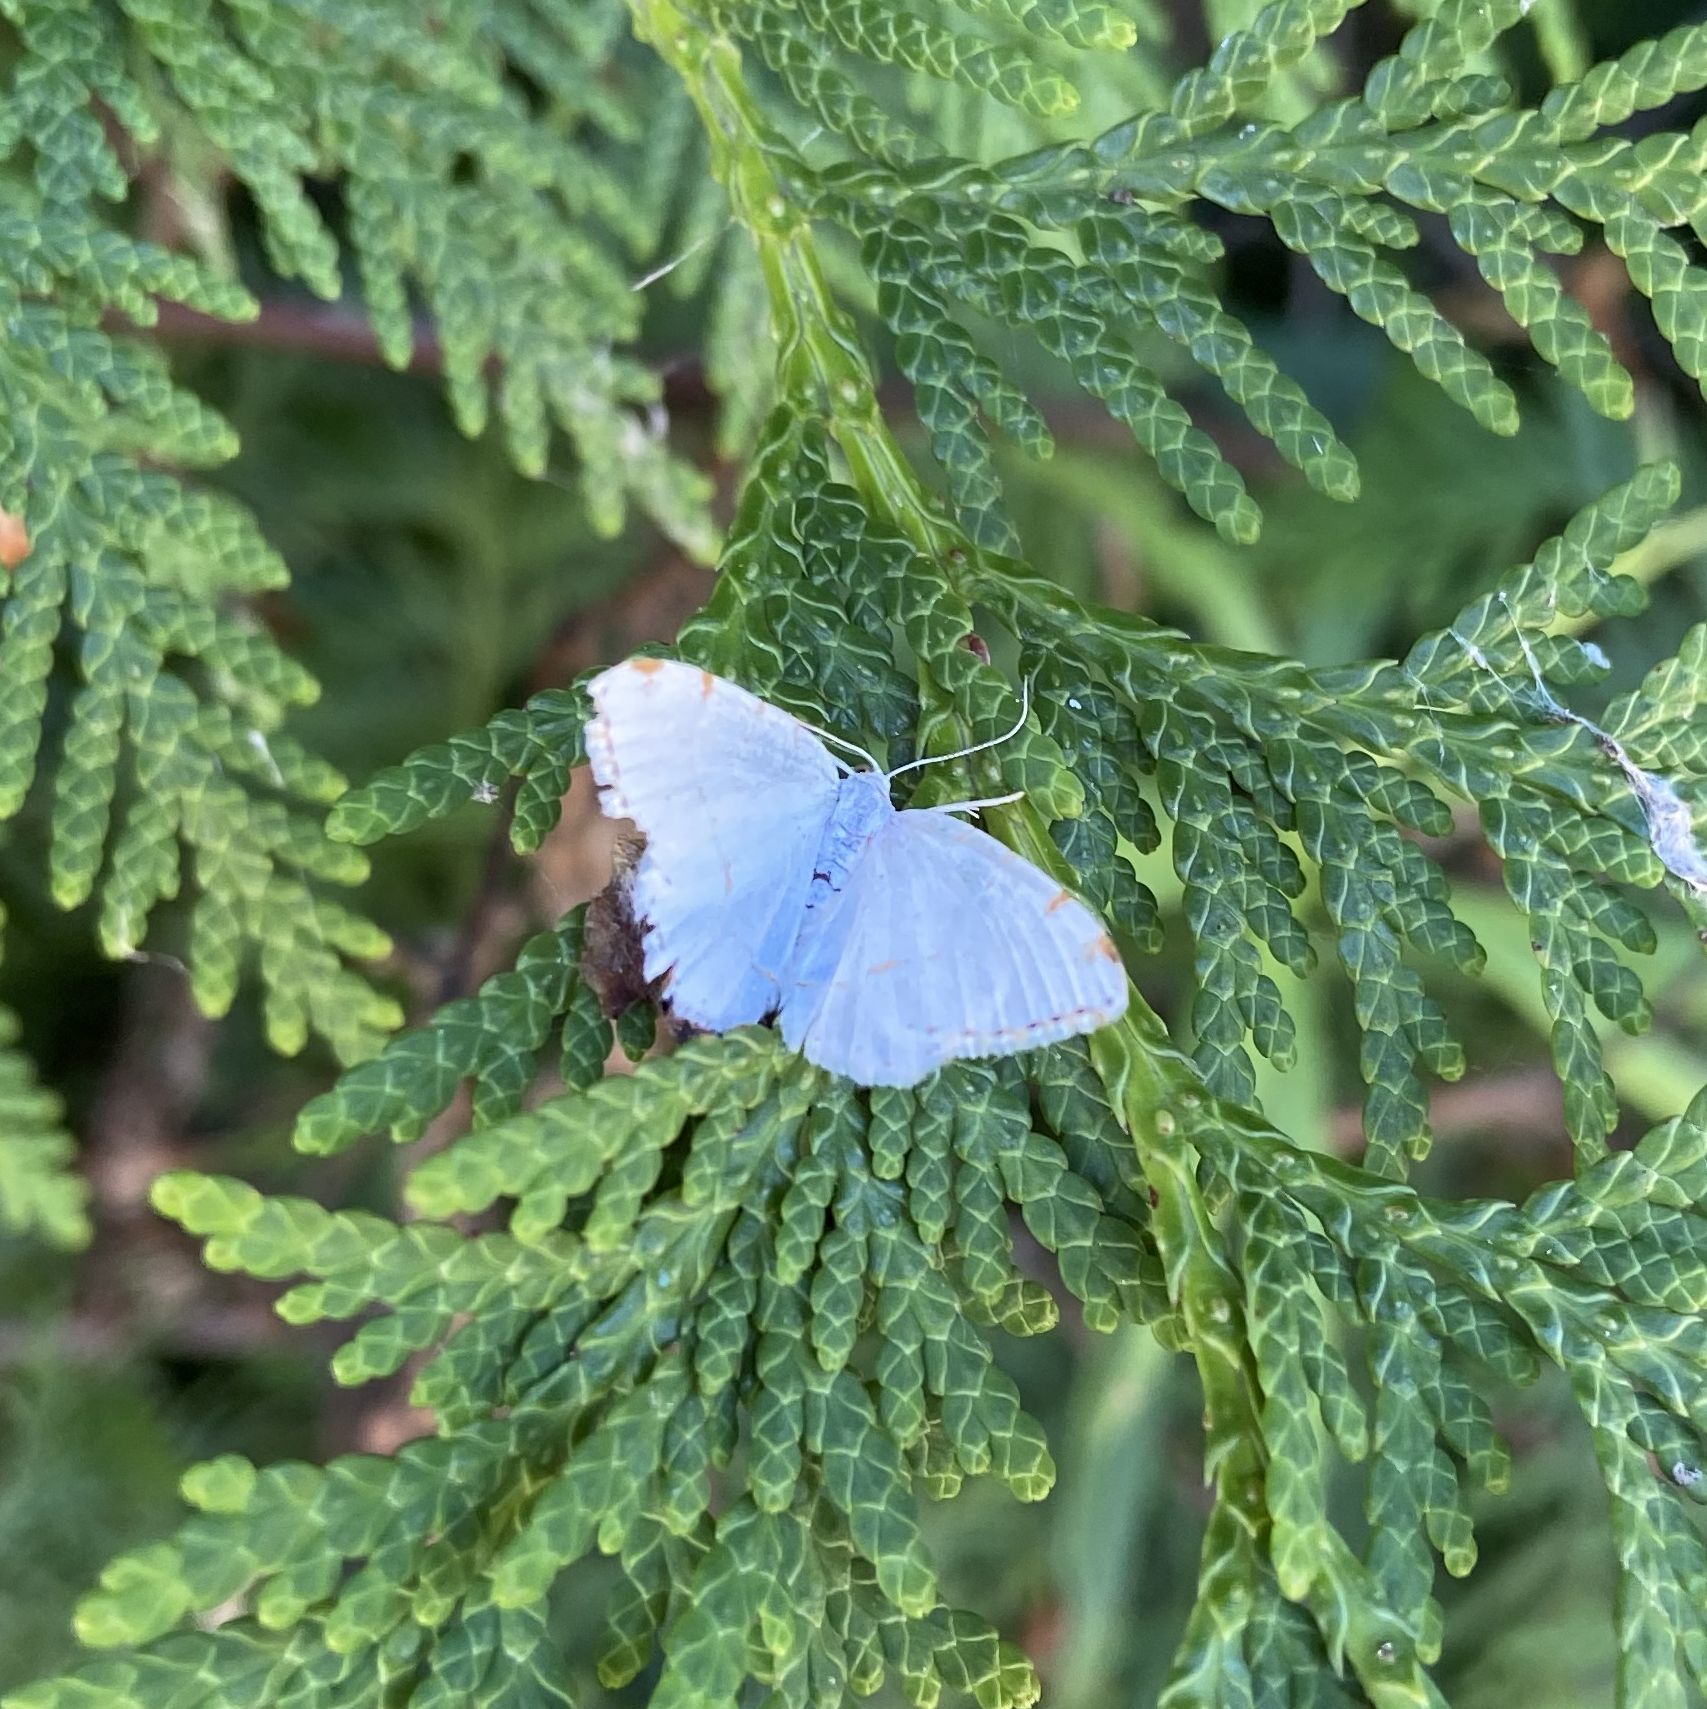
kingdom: Animalia
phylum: Arthropoda
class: Insecta
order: Lepidoptera
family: Geometridae
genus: Macaria
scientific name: Macaria pustularia
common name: Lesser maple spanworm moth
